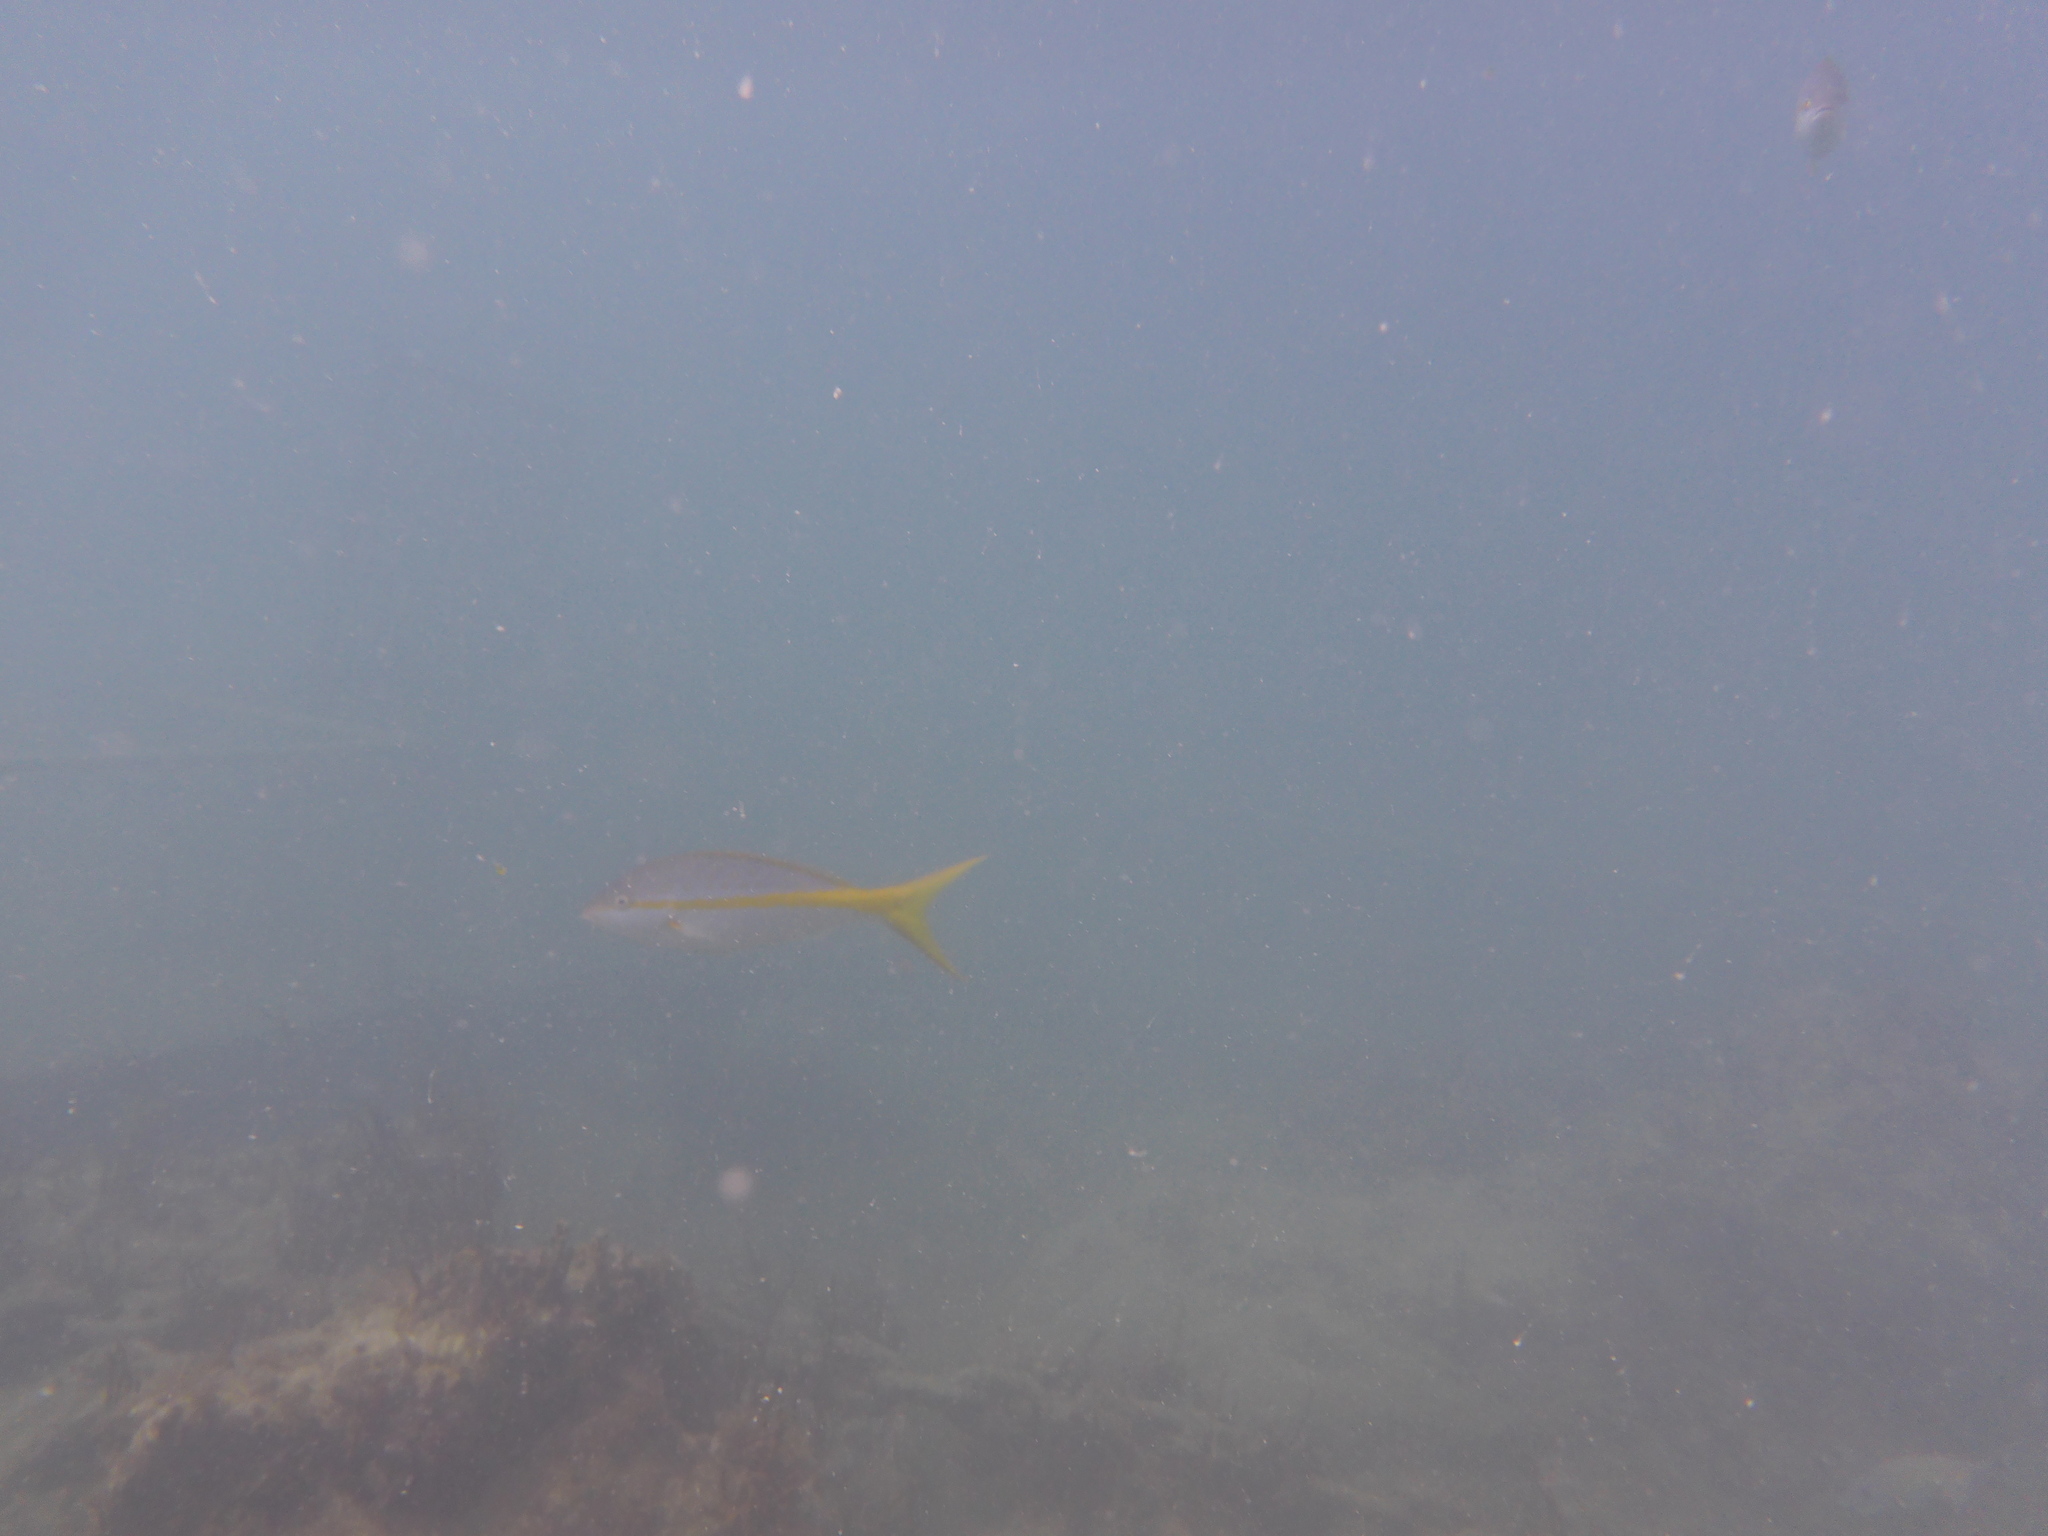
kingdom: Animalia
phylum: Chordata
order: Perciformes
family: Lutjanidae
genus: Ocyurus
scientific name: Ocyurus chrysurus
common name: Yellowtail snapper
